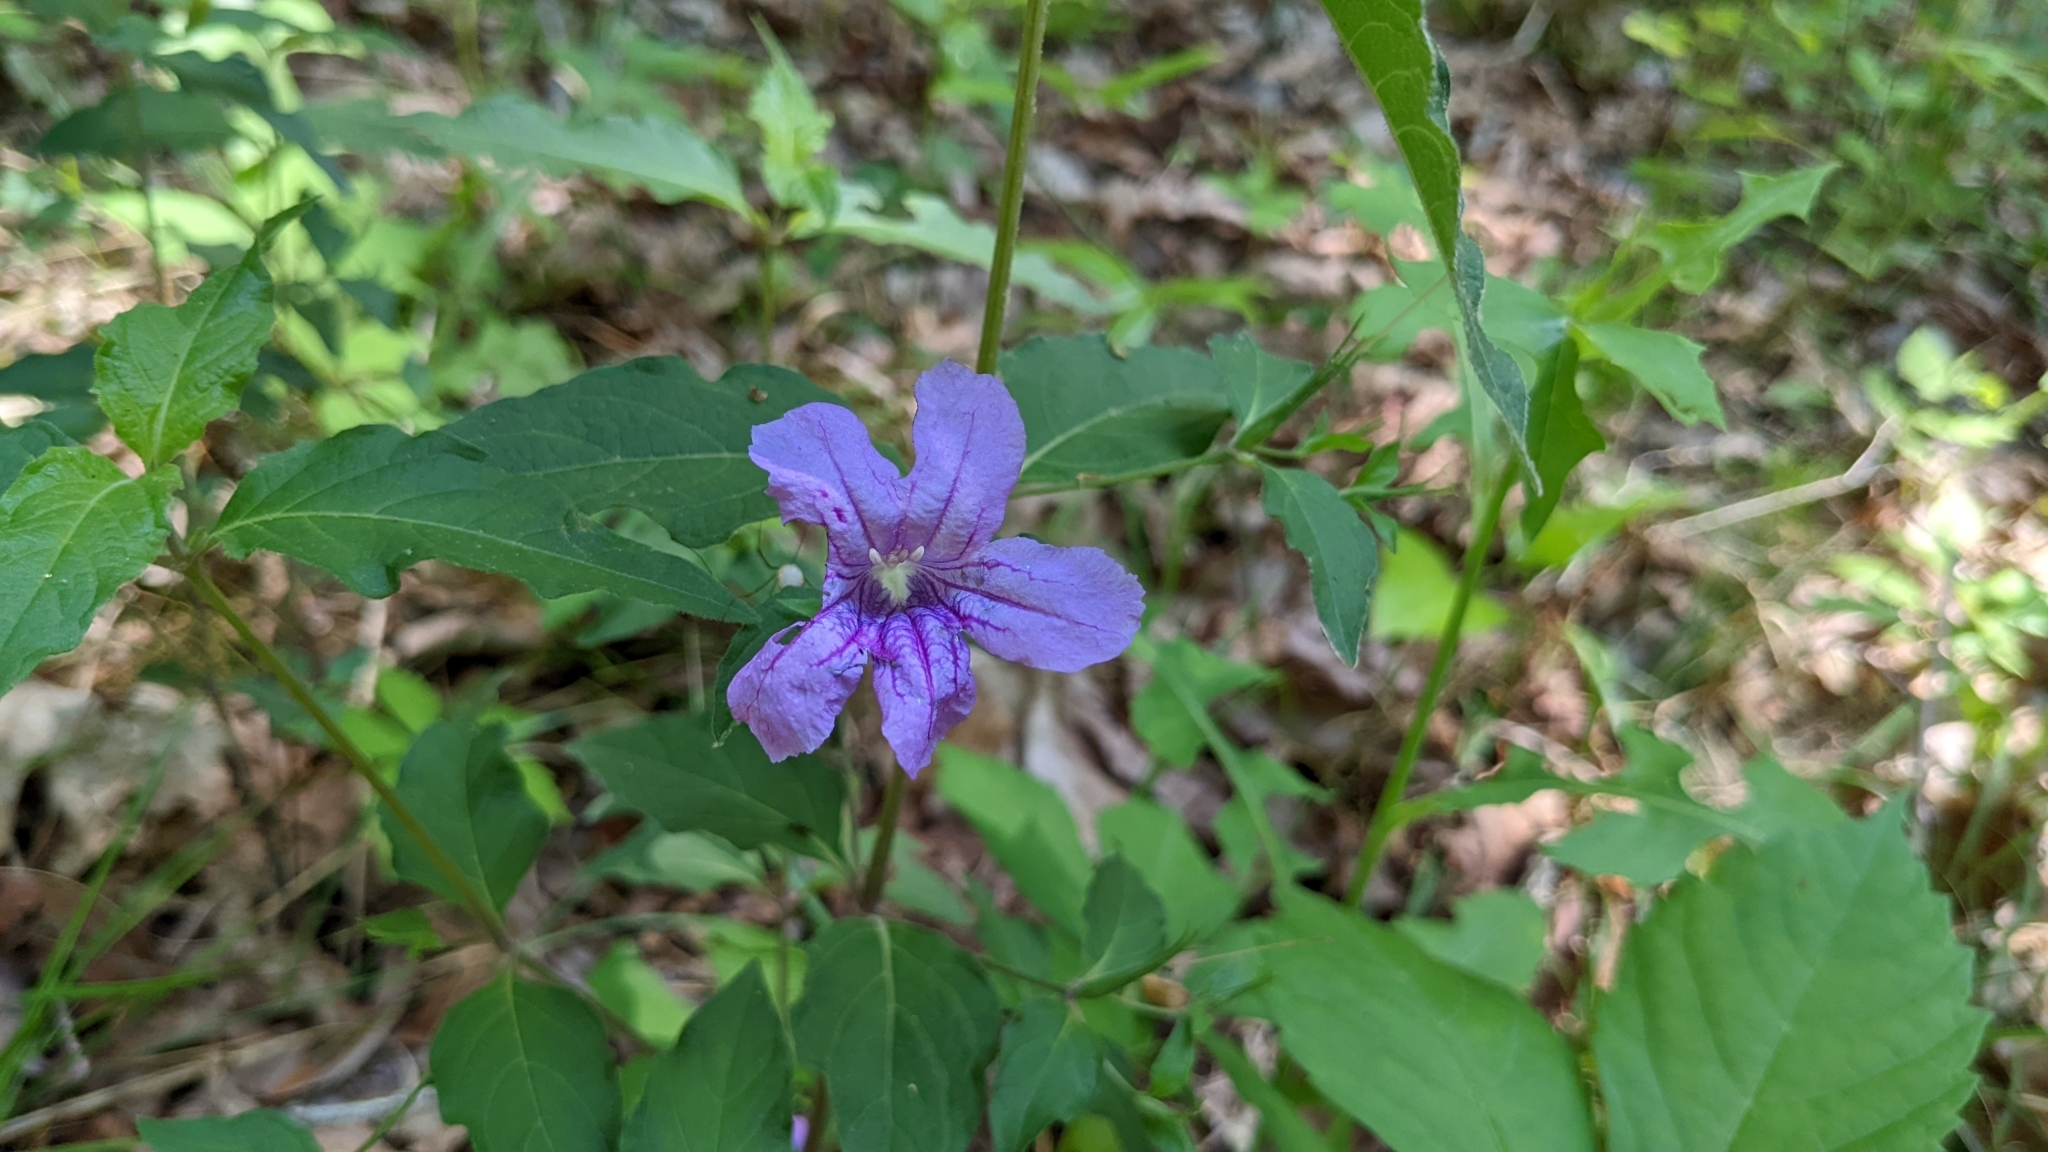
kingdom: Plantae
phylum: Tracheophyta
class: Magnoliopsida
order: Lamiales
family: Acanthaceae
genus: Ruellia
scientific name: Ruellia pedunculata
